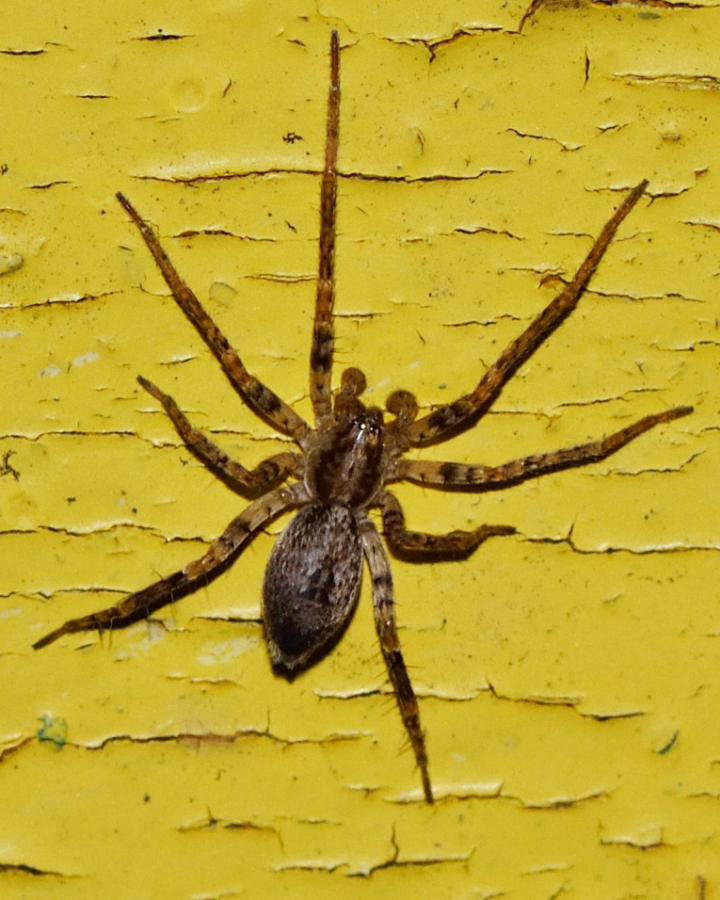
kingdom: Animalia
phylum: Arthropoda
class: Arachnida
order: Araneae
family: Anyphaenidae
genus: Anyphaena
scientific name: Anyphaena accentuata
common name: Buzzing spider
